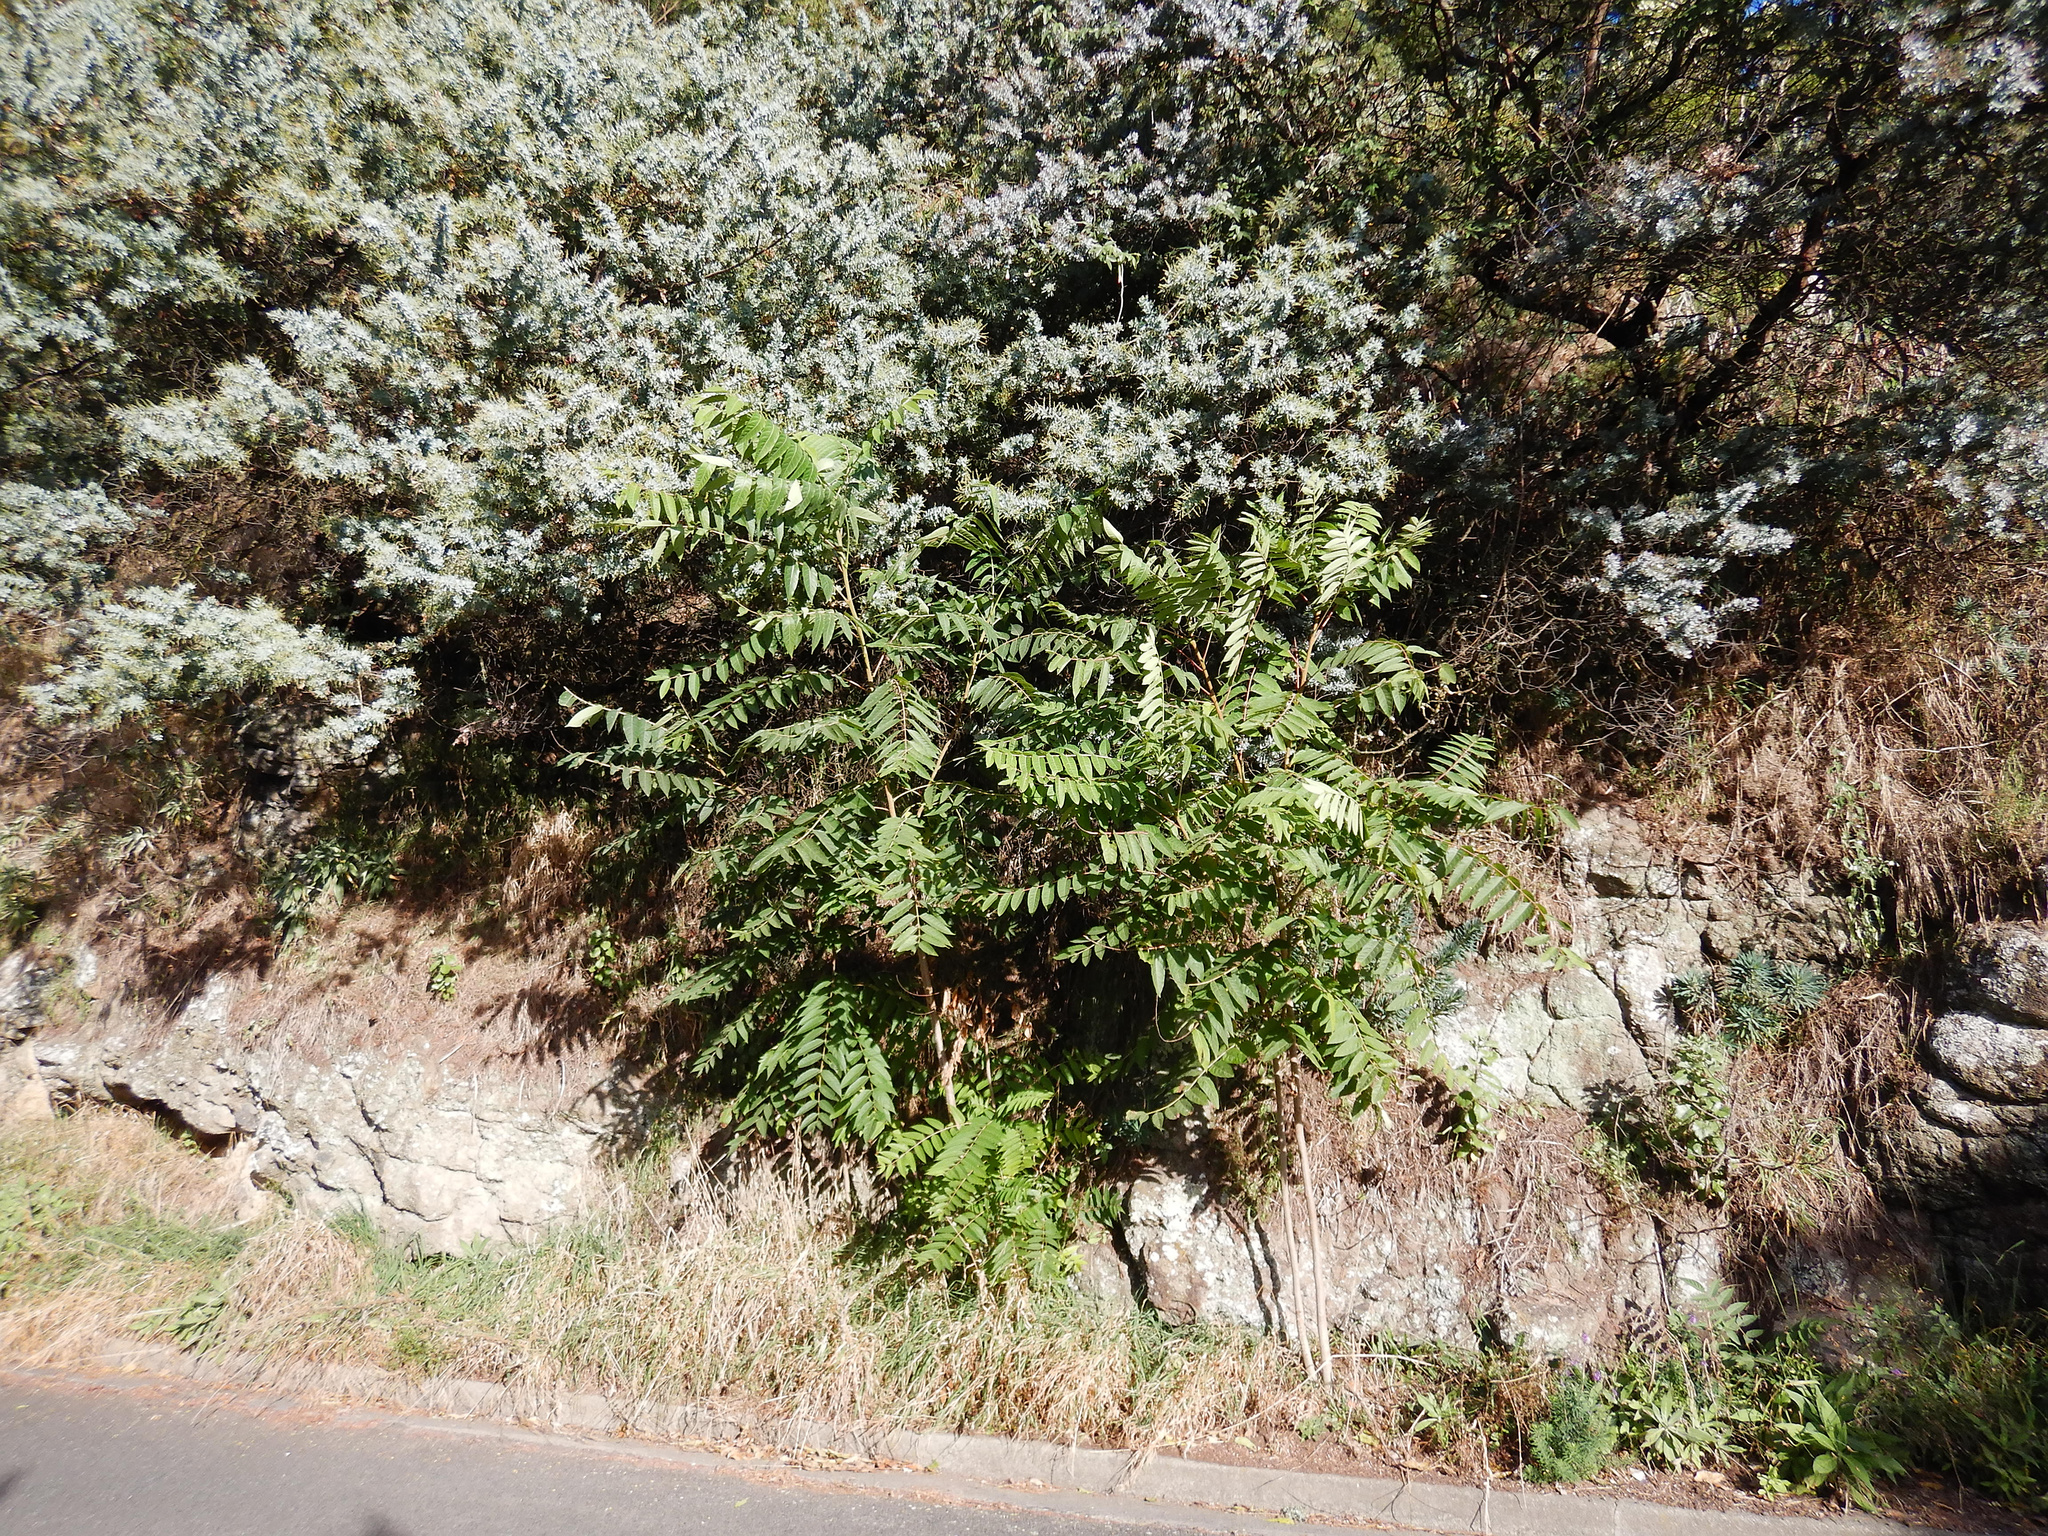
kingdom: Plantae
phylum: Tracheophyta
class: Magnoliopsida
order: Sapindales
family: Simaroubaceae
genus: Ailanthus
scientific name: Ailanthus altissima
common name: Tree-of-heaven
